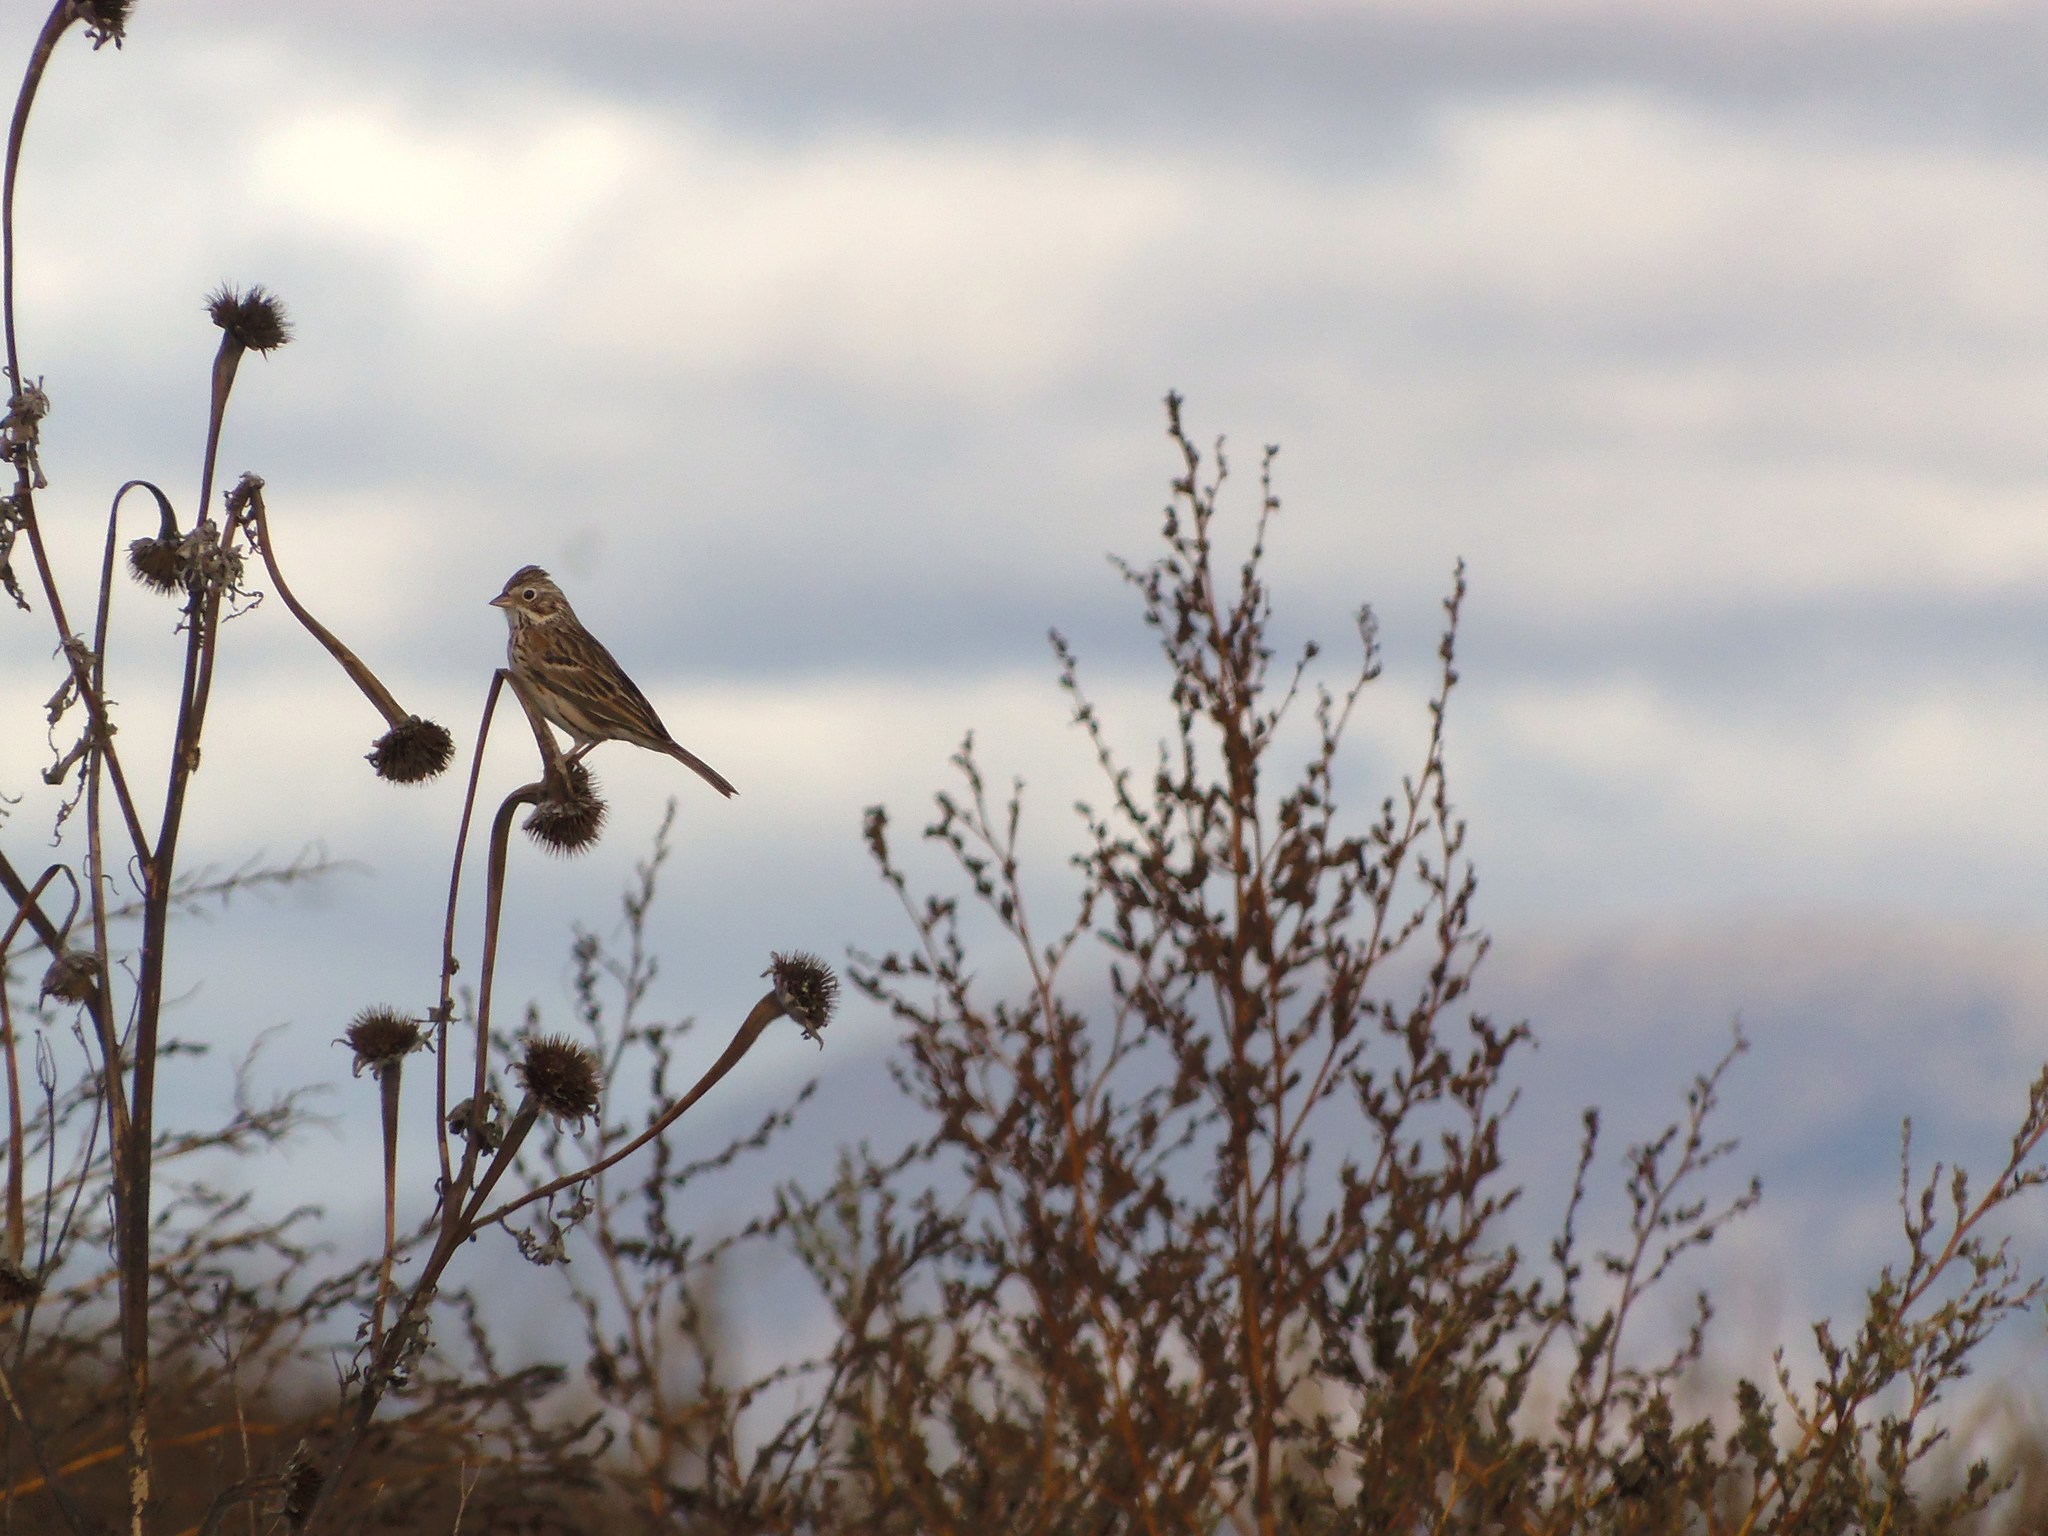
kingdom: Animalia
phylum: Chordata
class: Aves
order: Passeriformes
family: Passerellidae
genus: Pooecetes
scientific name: Pooecetes gramineus
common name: Vesper sparrow
